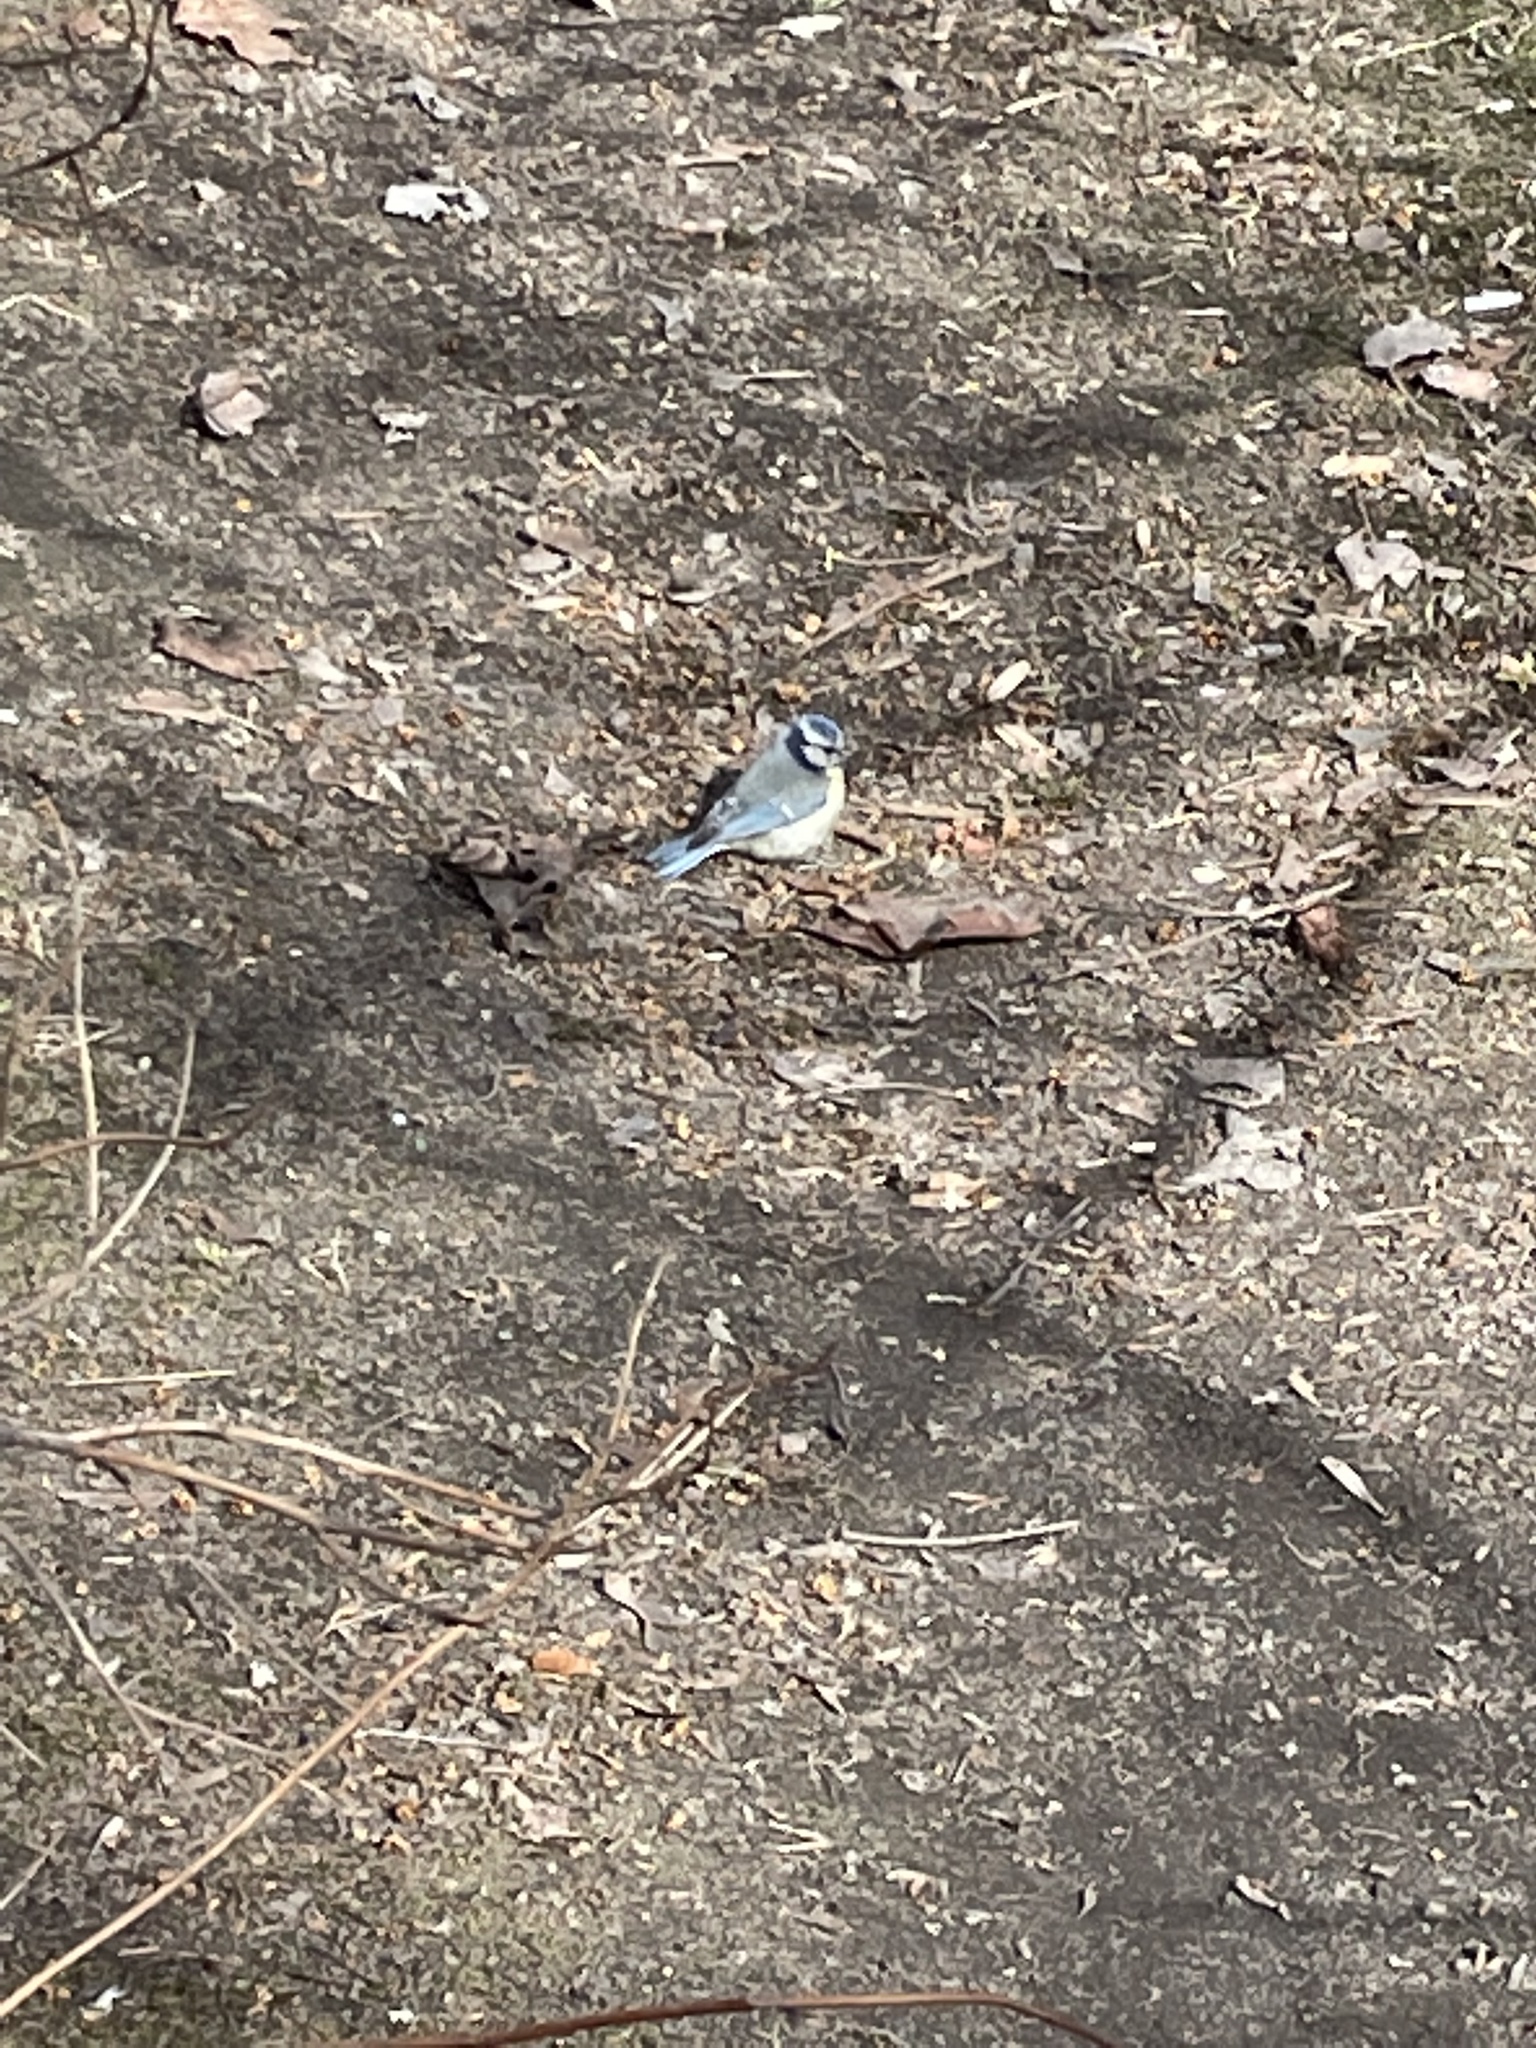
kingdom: Animalia
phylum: Chordata
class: Aves
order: Passeriformes
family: Paridae
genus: Cyanistes
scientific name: Cyanistes caeruleus
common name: Eurasian blue tit
